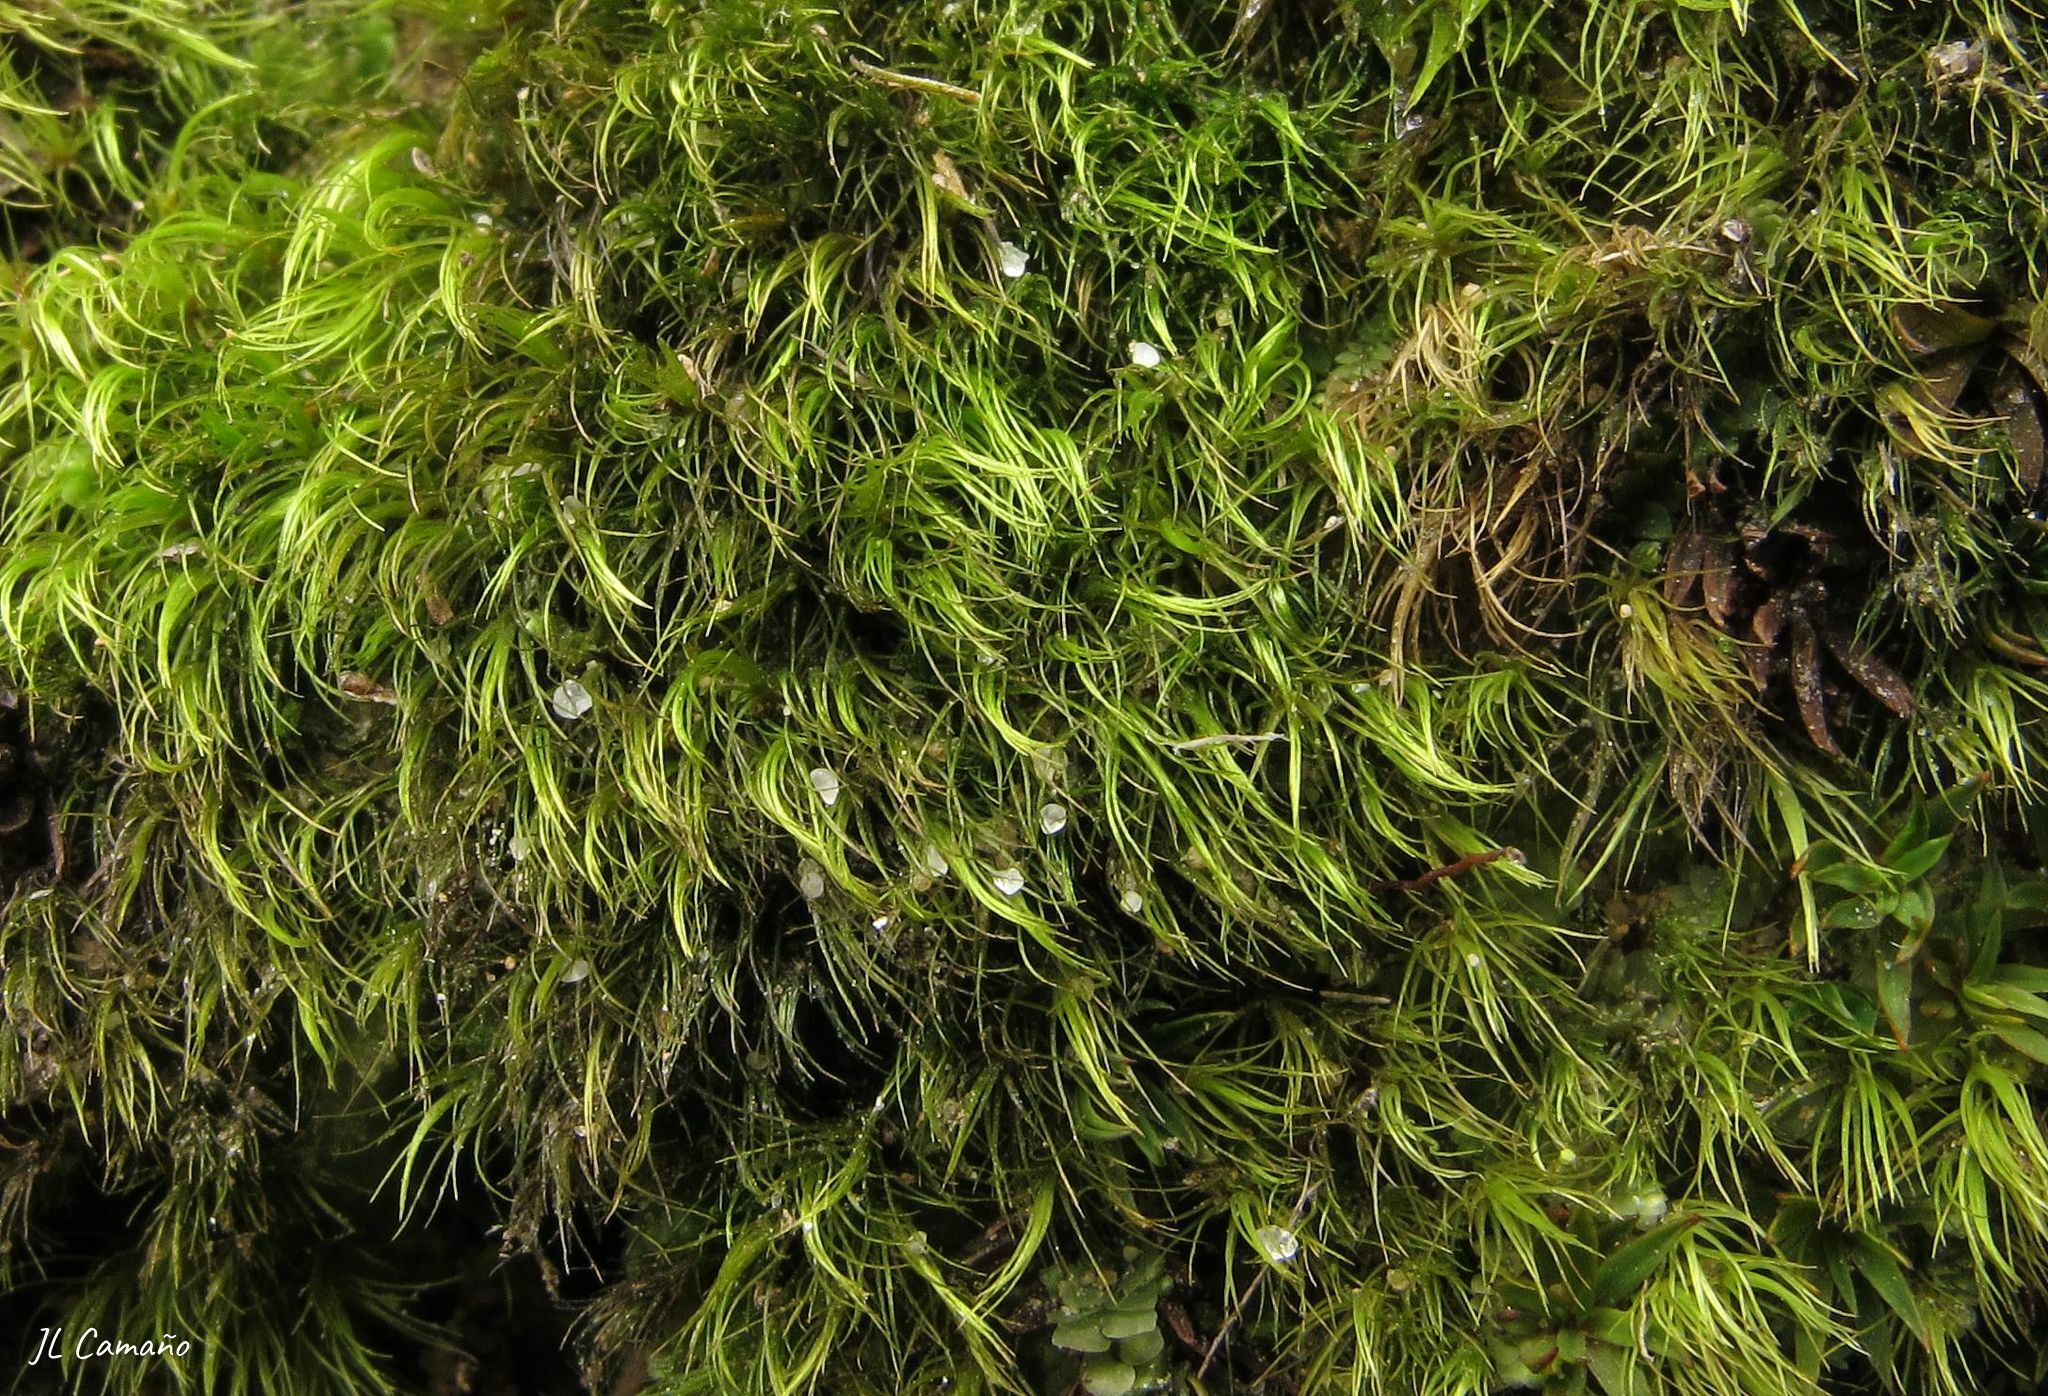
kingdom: Plantae
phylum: Bryophyta
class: Bryopsida
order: Dicranales
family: Dicranellaceae
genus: Dicranella
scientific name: Dicranella heteromalla
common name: Silky forklet moss
